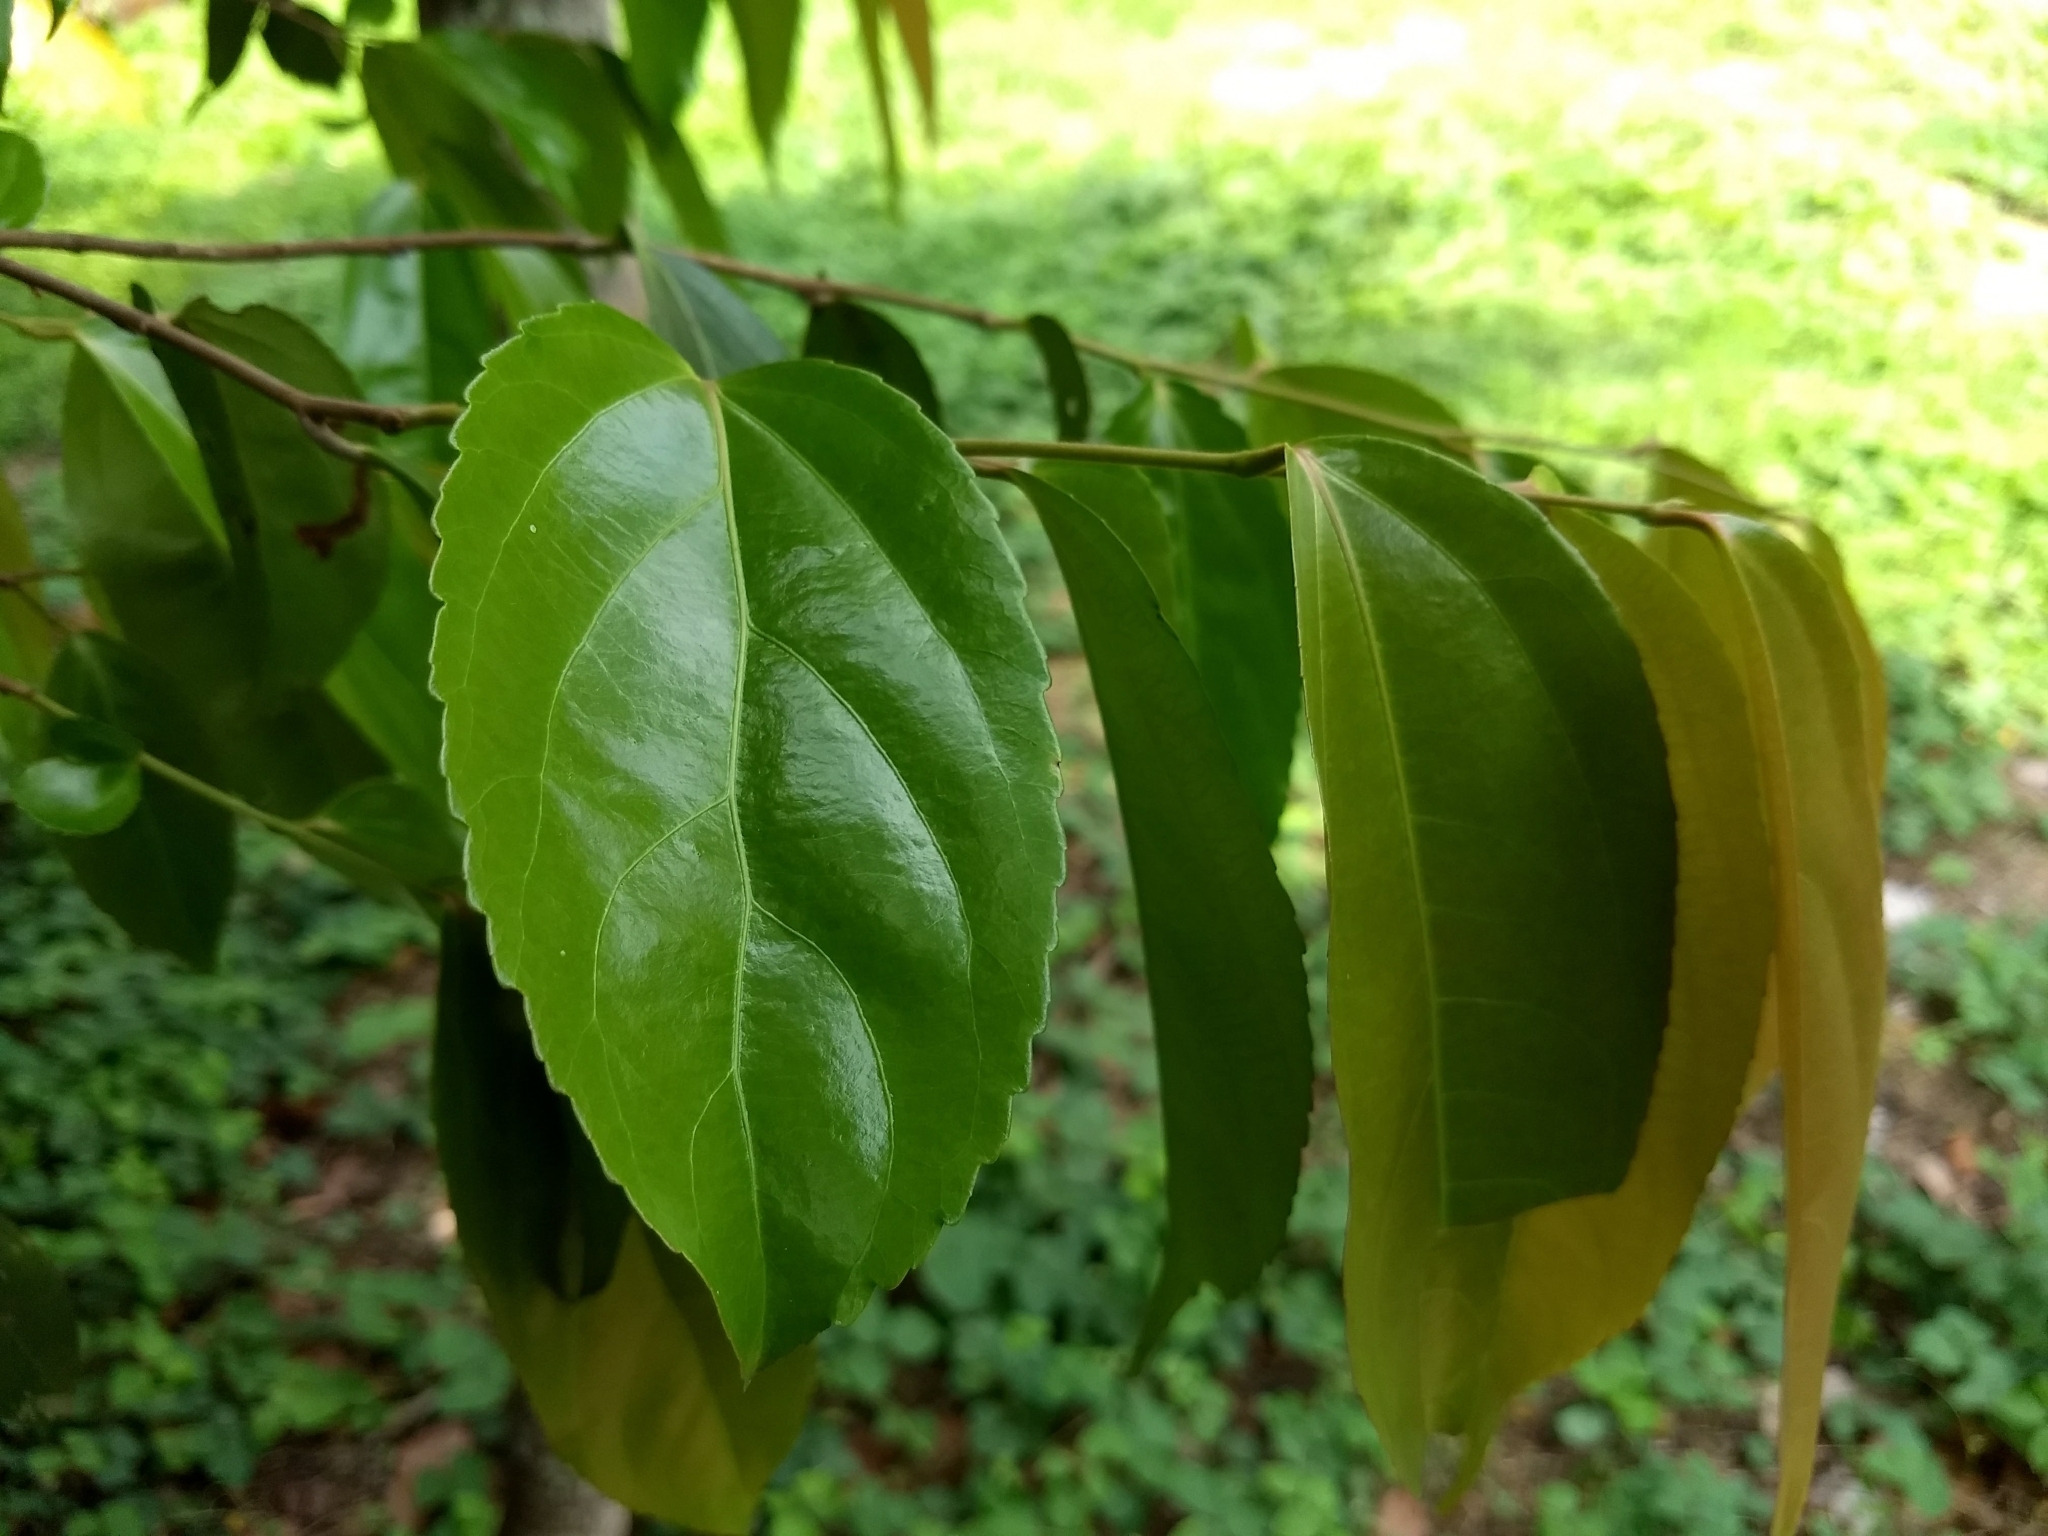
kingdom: Plantae
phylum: Tracheophyta
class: Magnoliopsida
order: Malpighiales
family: Salicaceae
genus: Flacourtia
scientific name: Flacourtia inermis
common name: Plum-of-martinique
